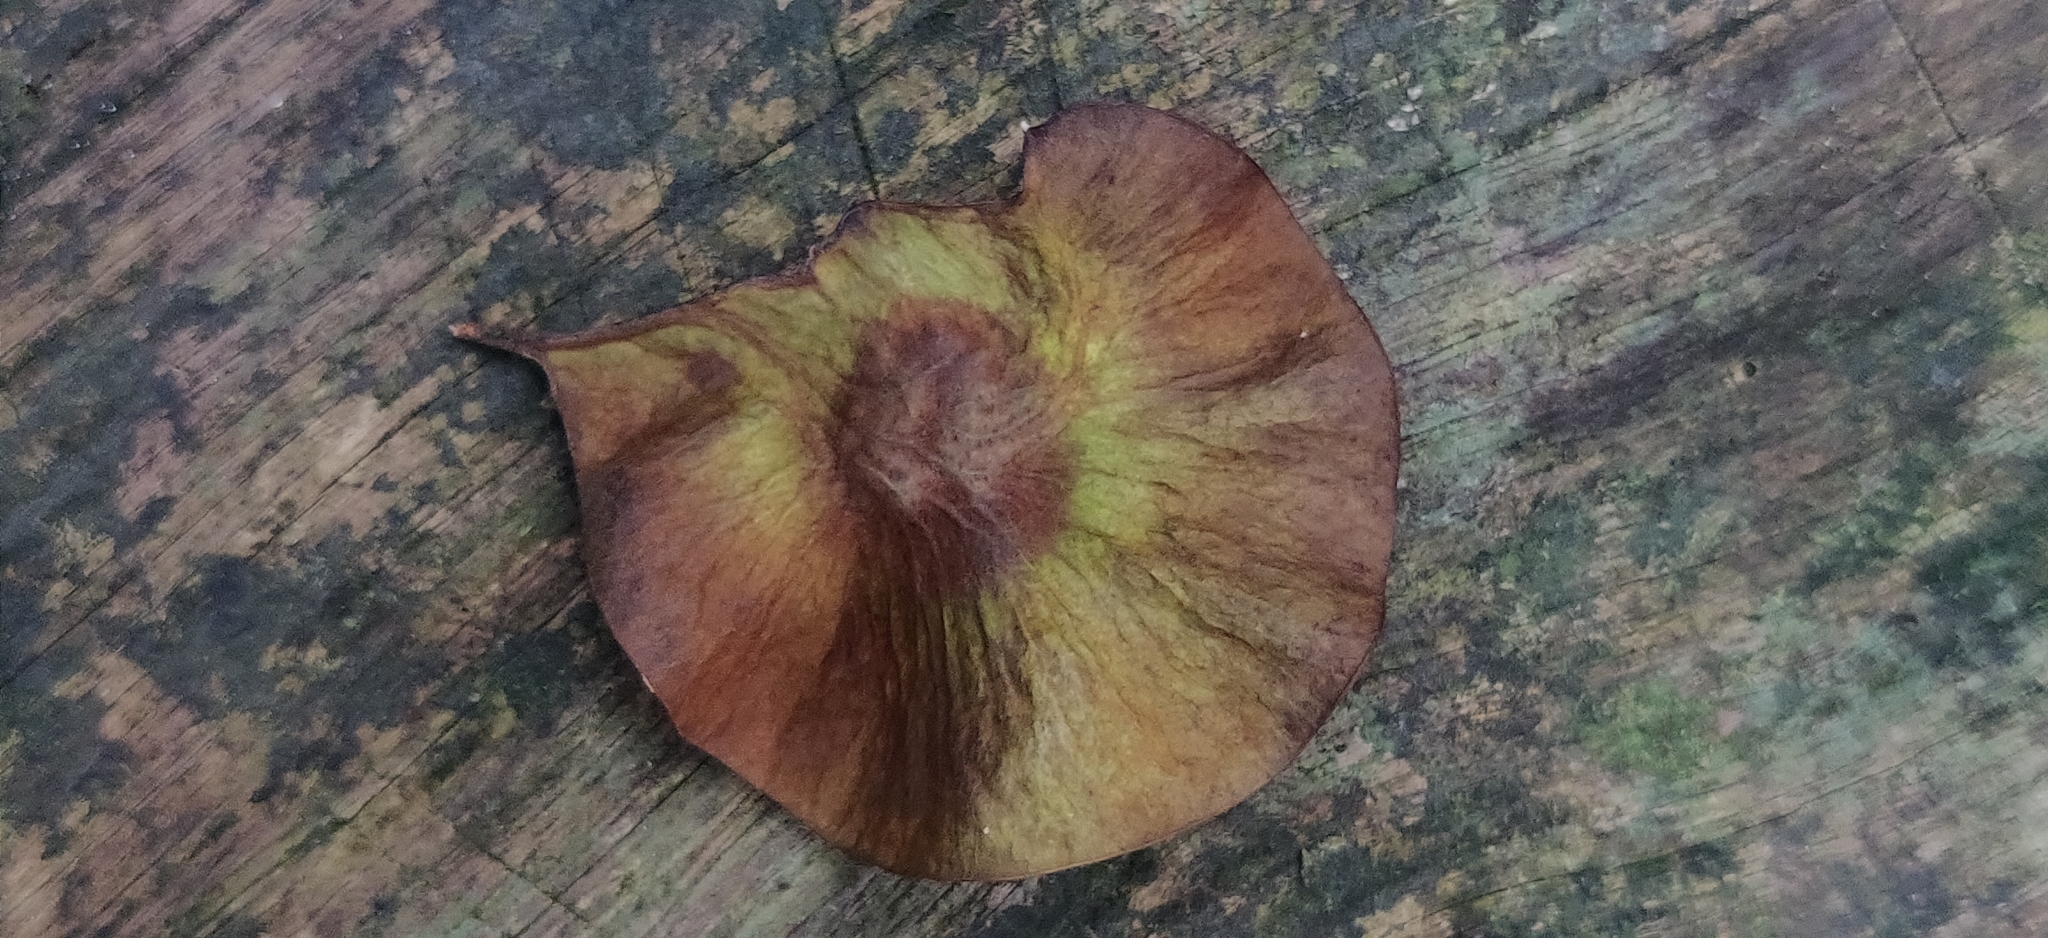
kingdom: Plantae
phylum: Tracheophyta
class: Magnoliopsida
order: Fabales
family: Fabaceae
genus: Pterocarpus
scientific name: Pterocarpus dalbergioides
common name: Andaman redwood
